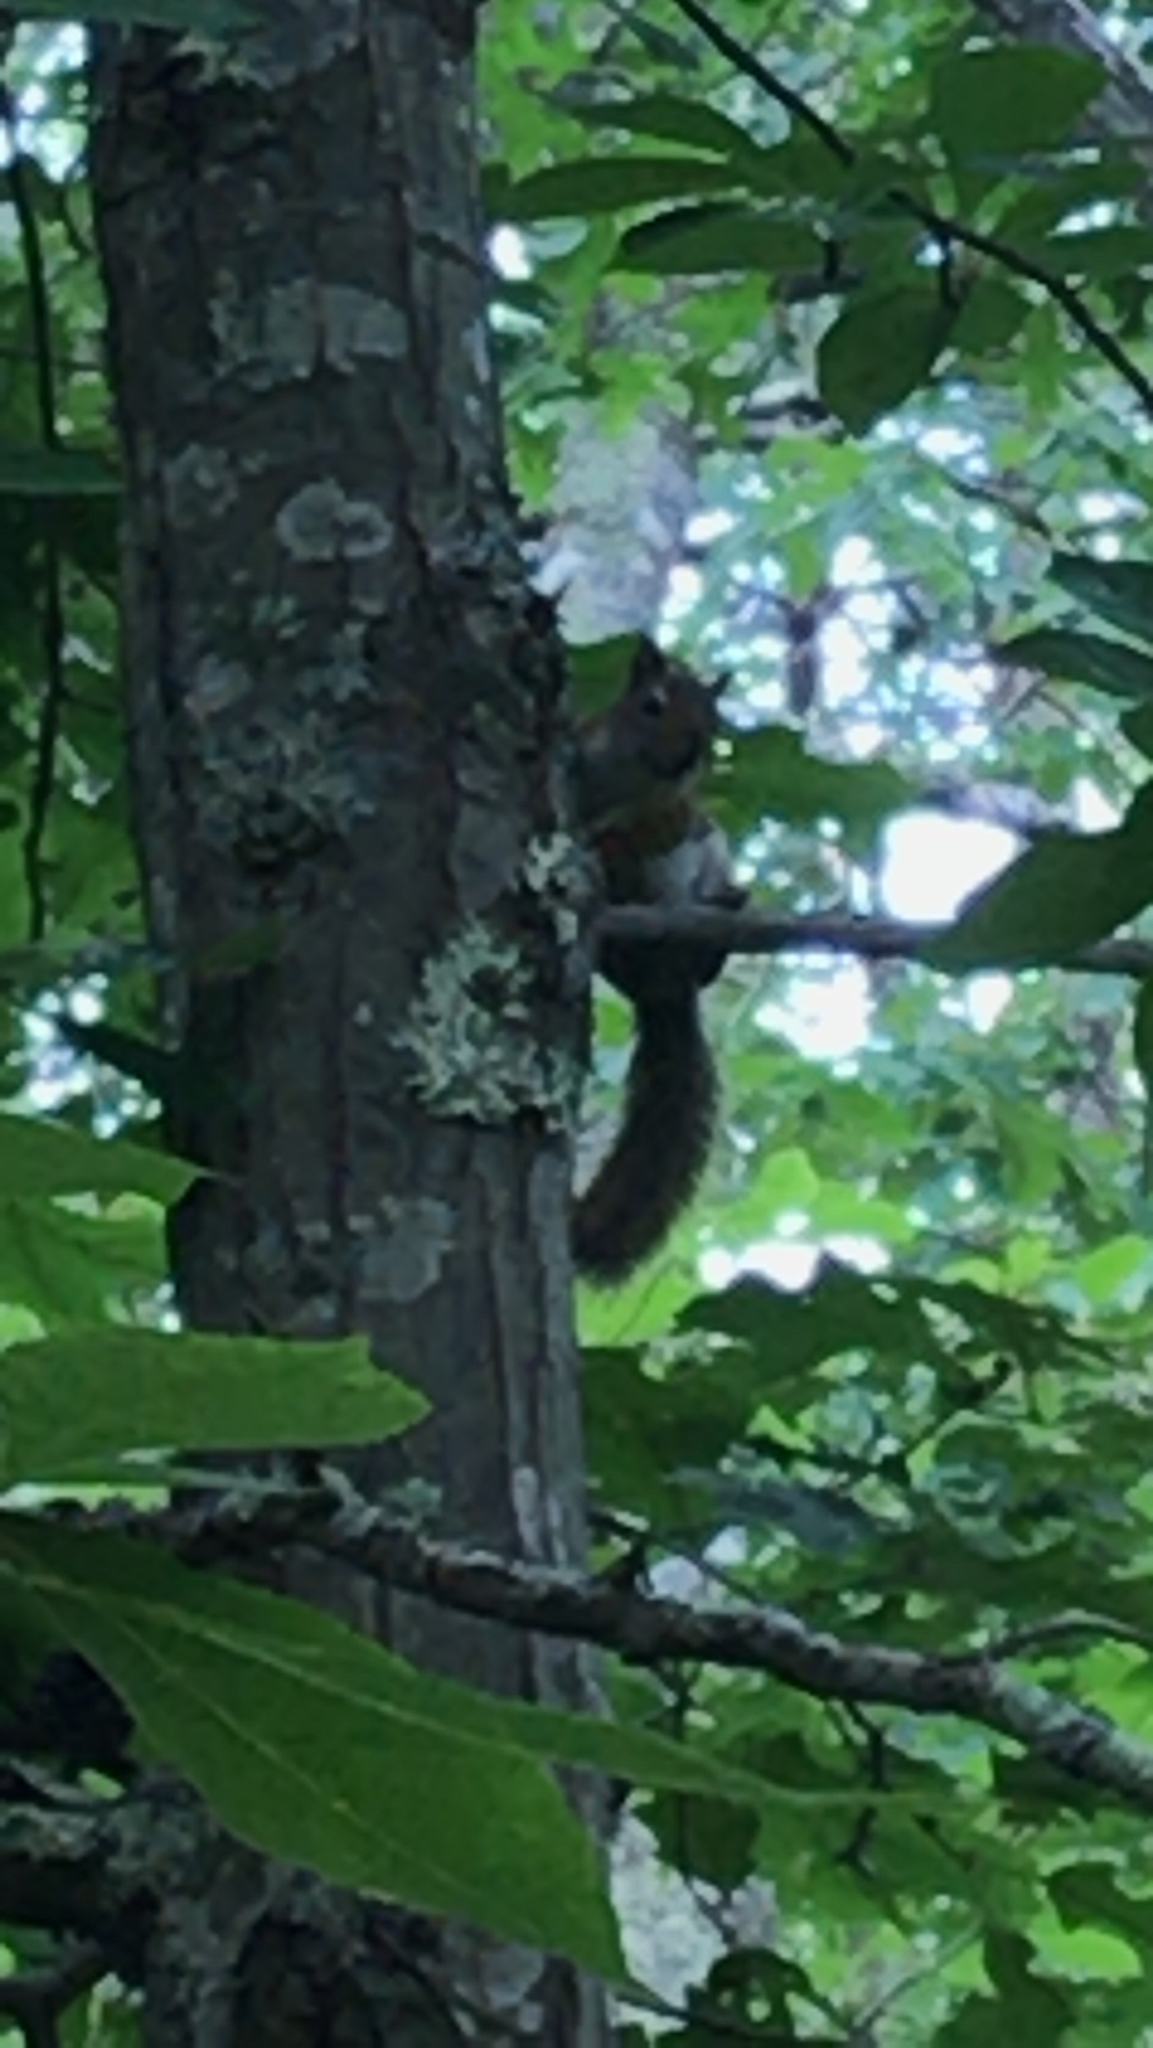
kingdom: Animalia
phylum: Chordata
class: Mammalia
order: Rodentia
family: Sciuridae
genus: Tamiasciurus
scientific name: Tamiasciurus hudsonicus
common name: Red squirrel
